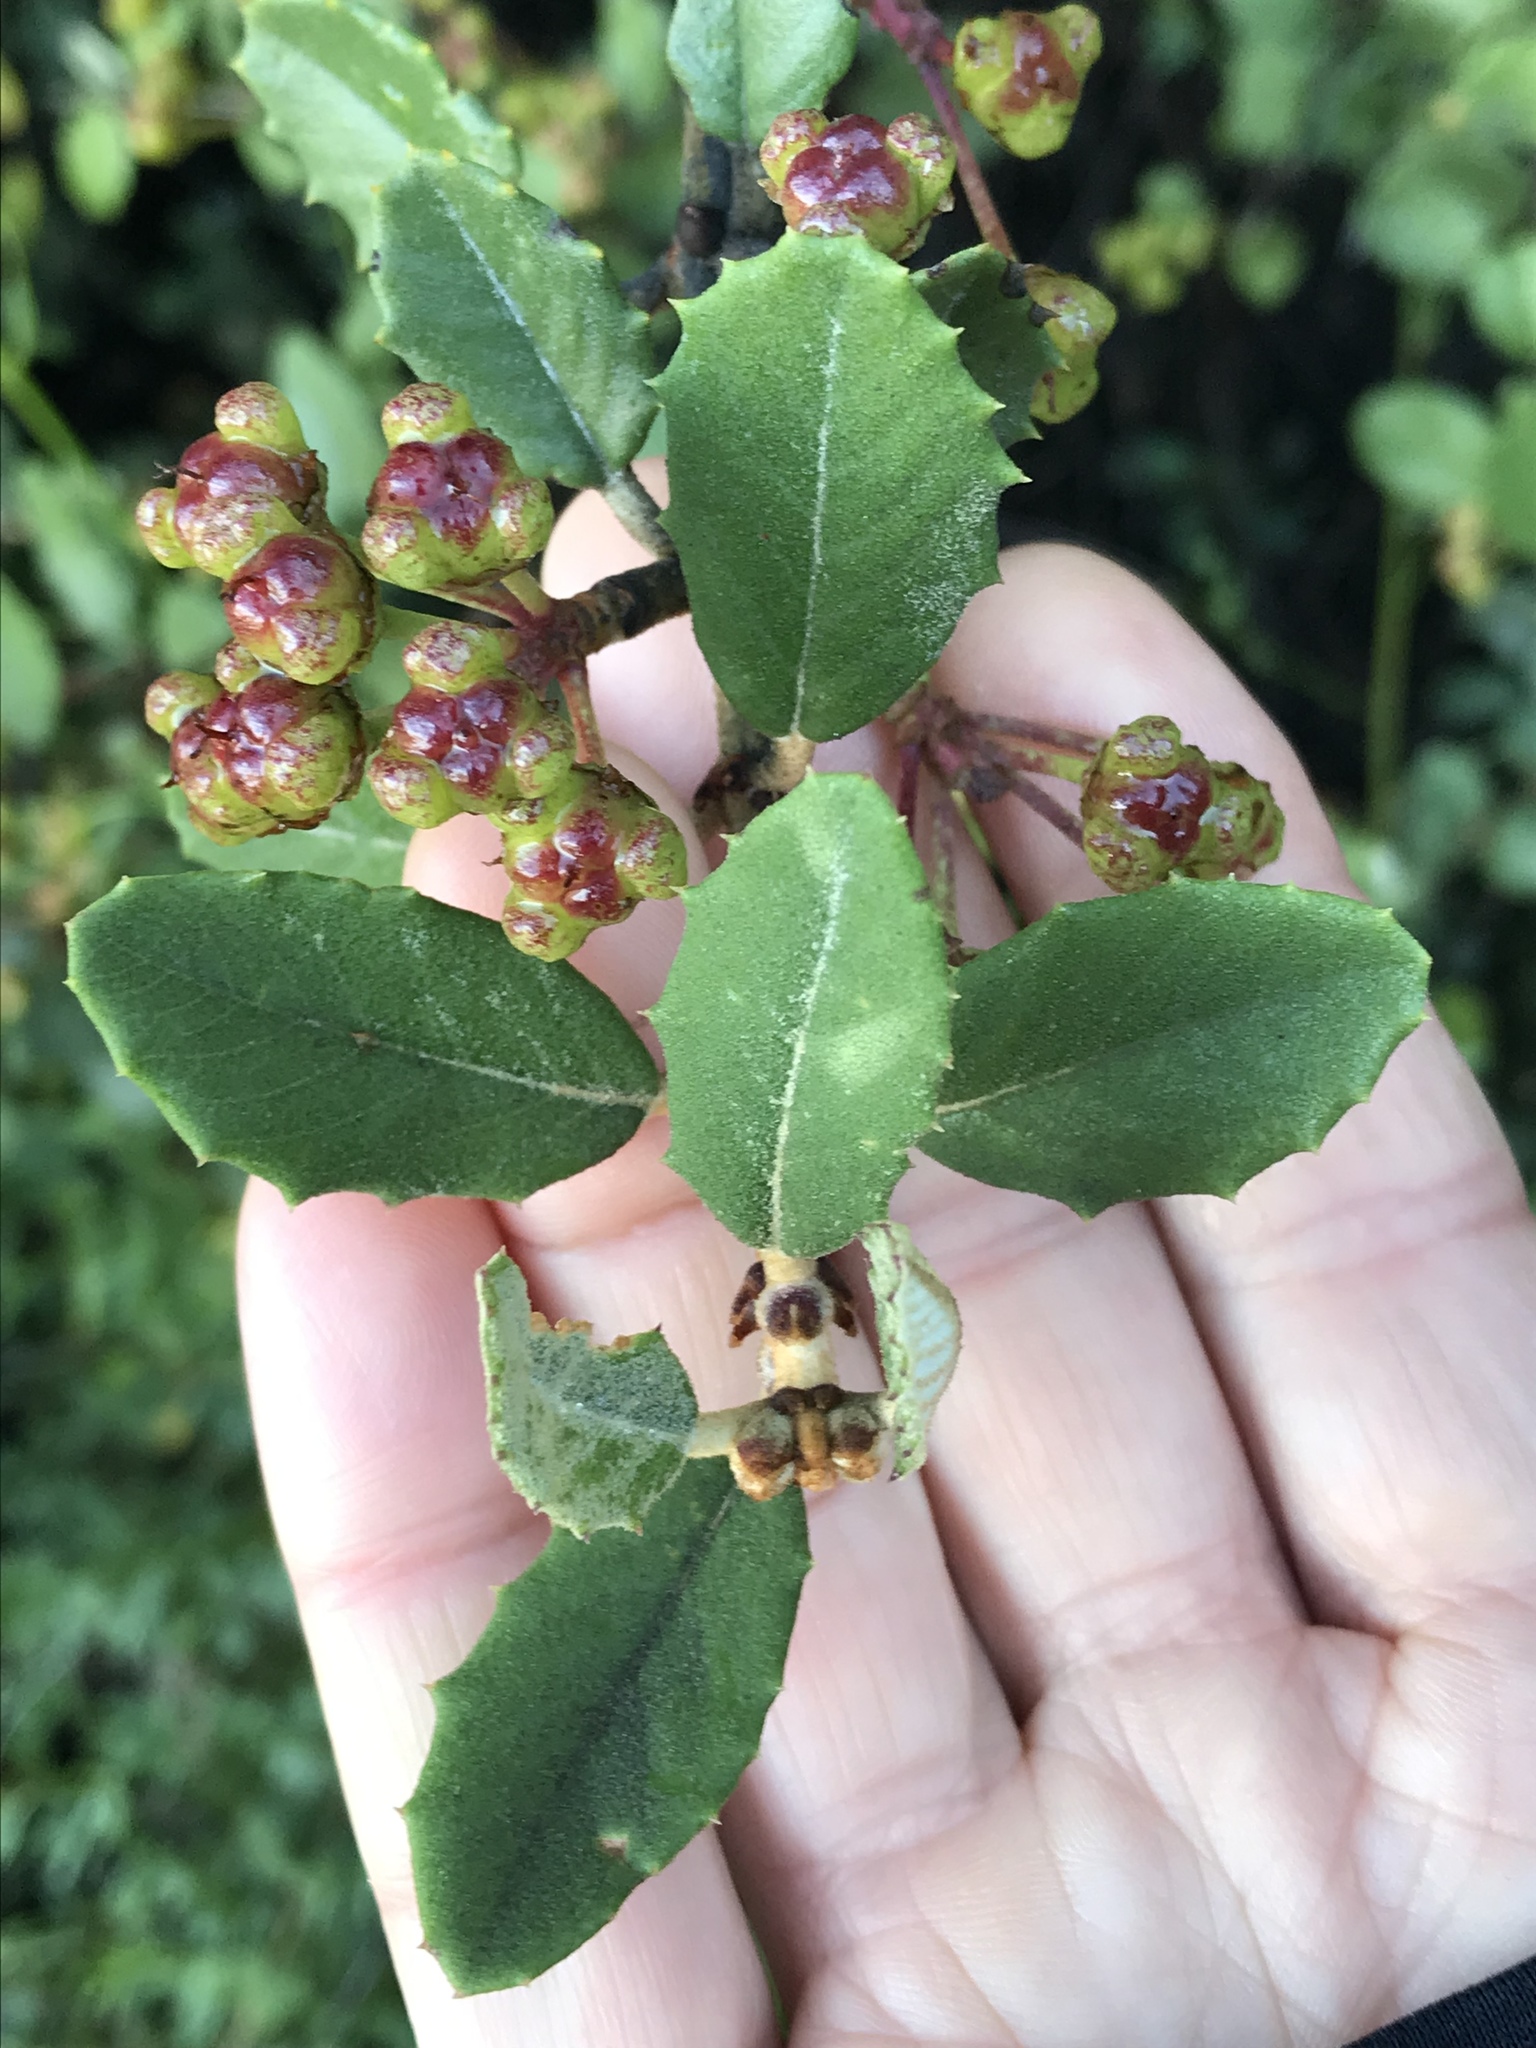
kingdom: Plantae
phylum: Tracheophyta
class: Magnoliopsida
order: Rosales
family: Rhamnaceae
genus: Ceanothus
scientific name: Ceanothus crassifolius
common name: Hoaryleaf ceanothus
